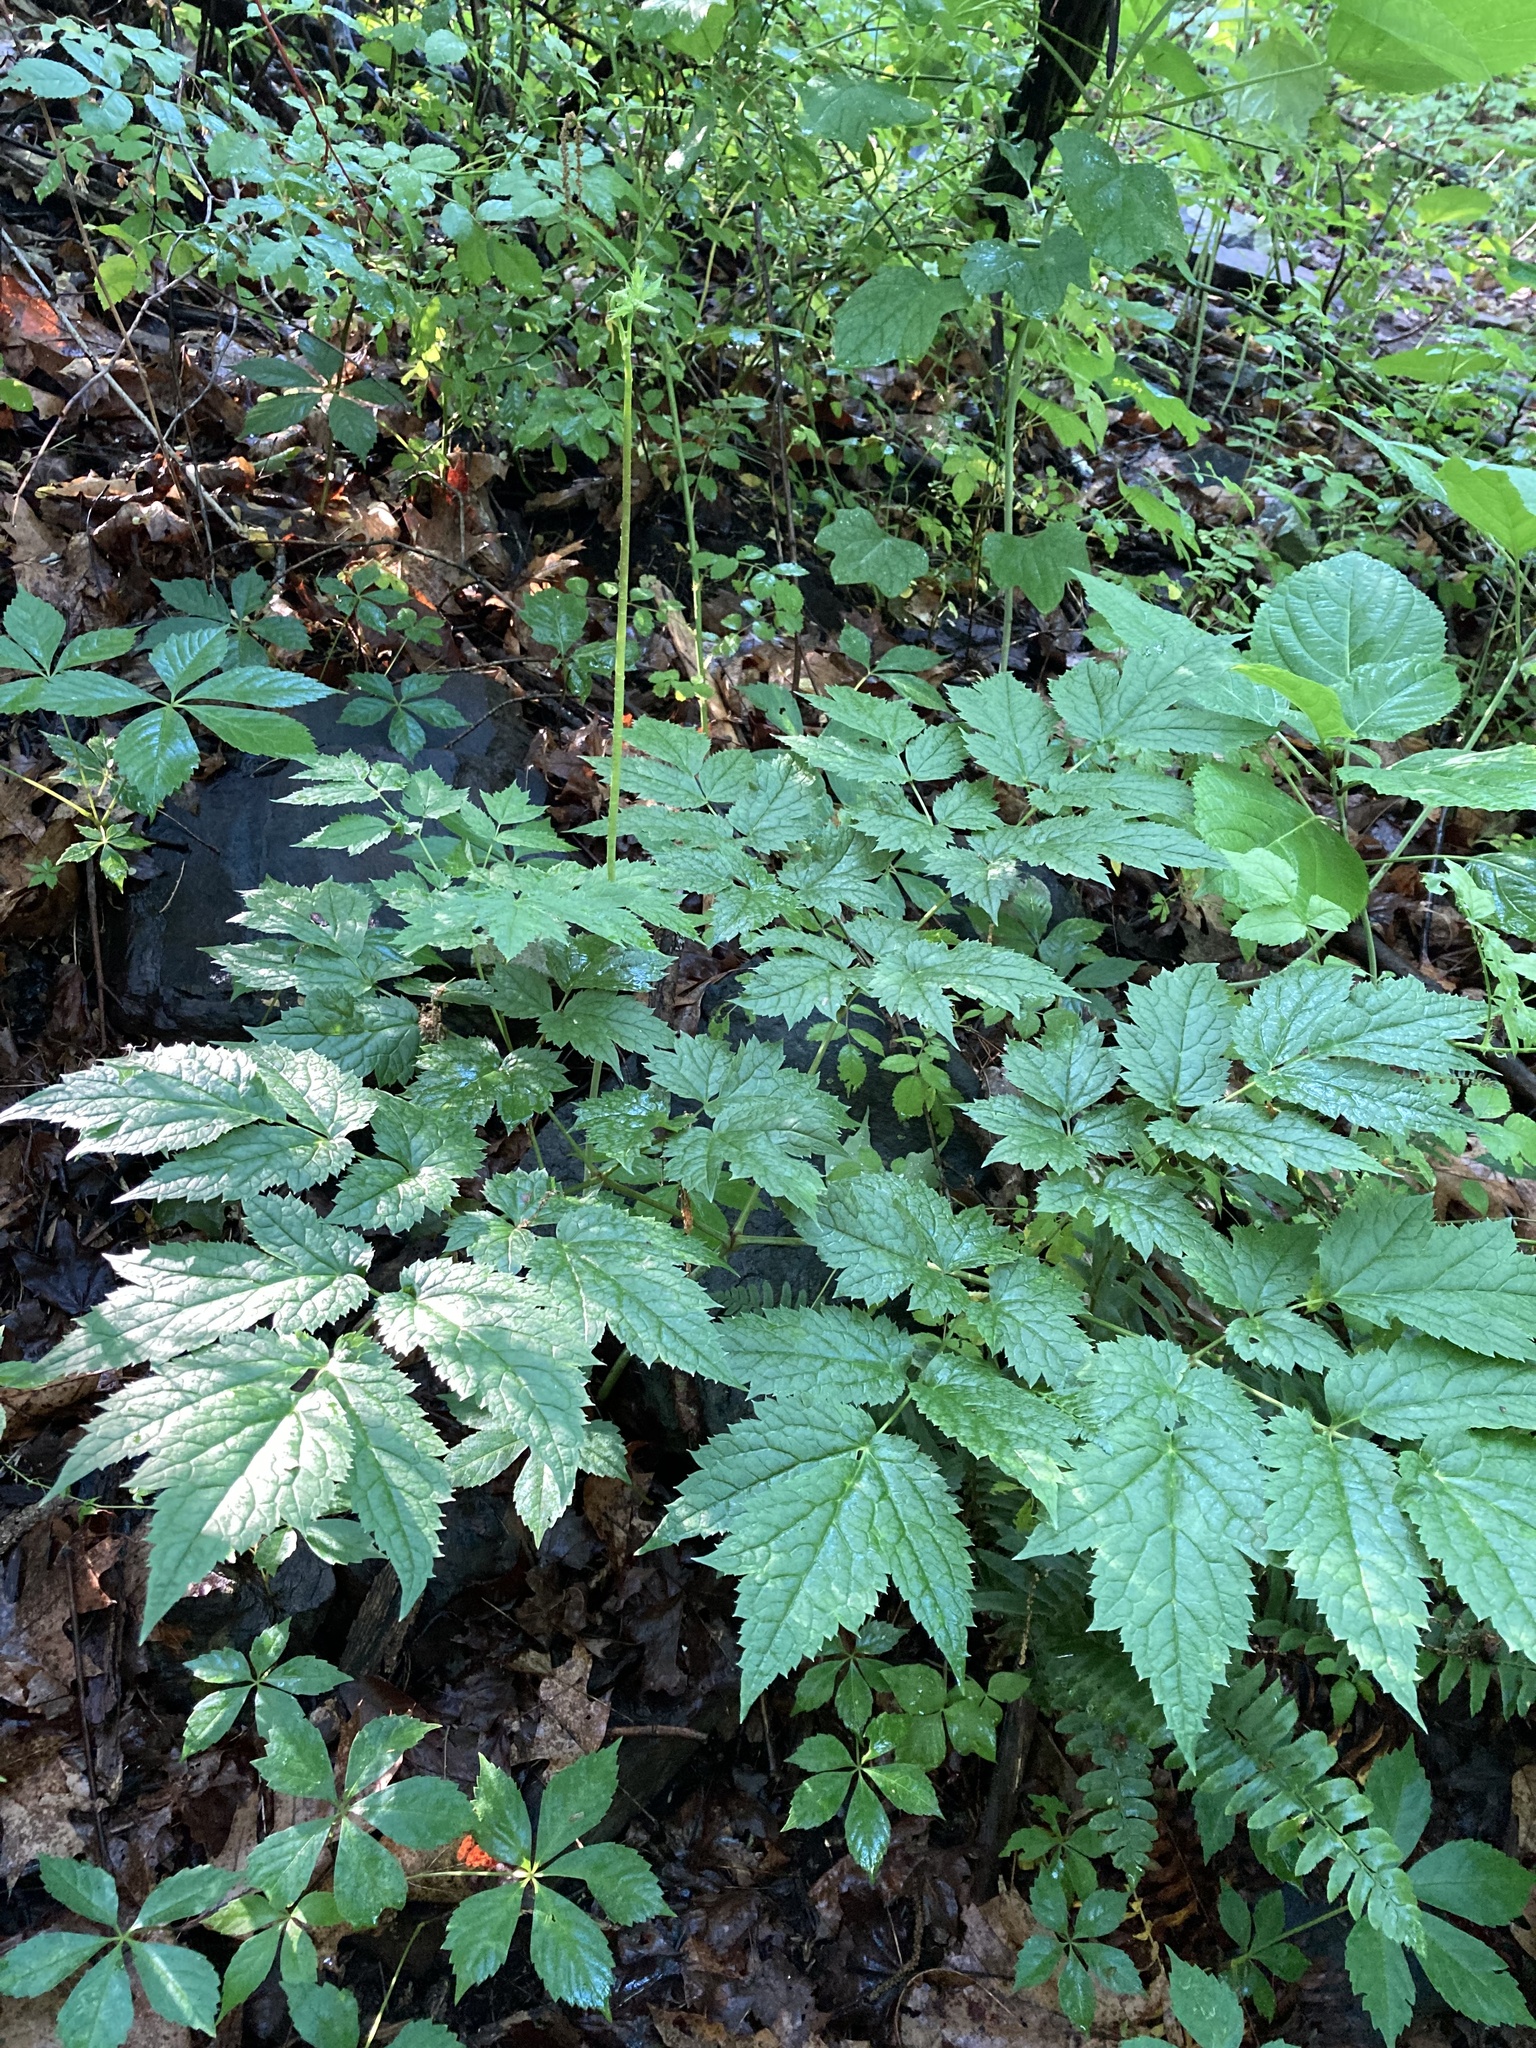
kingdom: Plantae
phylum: Tracheophyta
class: Magnoliopsida
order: Ranunculales
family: Ranunculaceae
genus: Actaea
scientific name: Actaea racemosa
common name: Black cohosh
